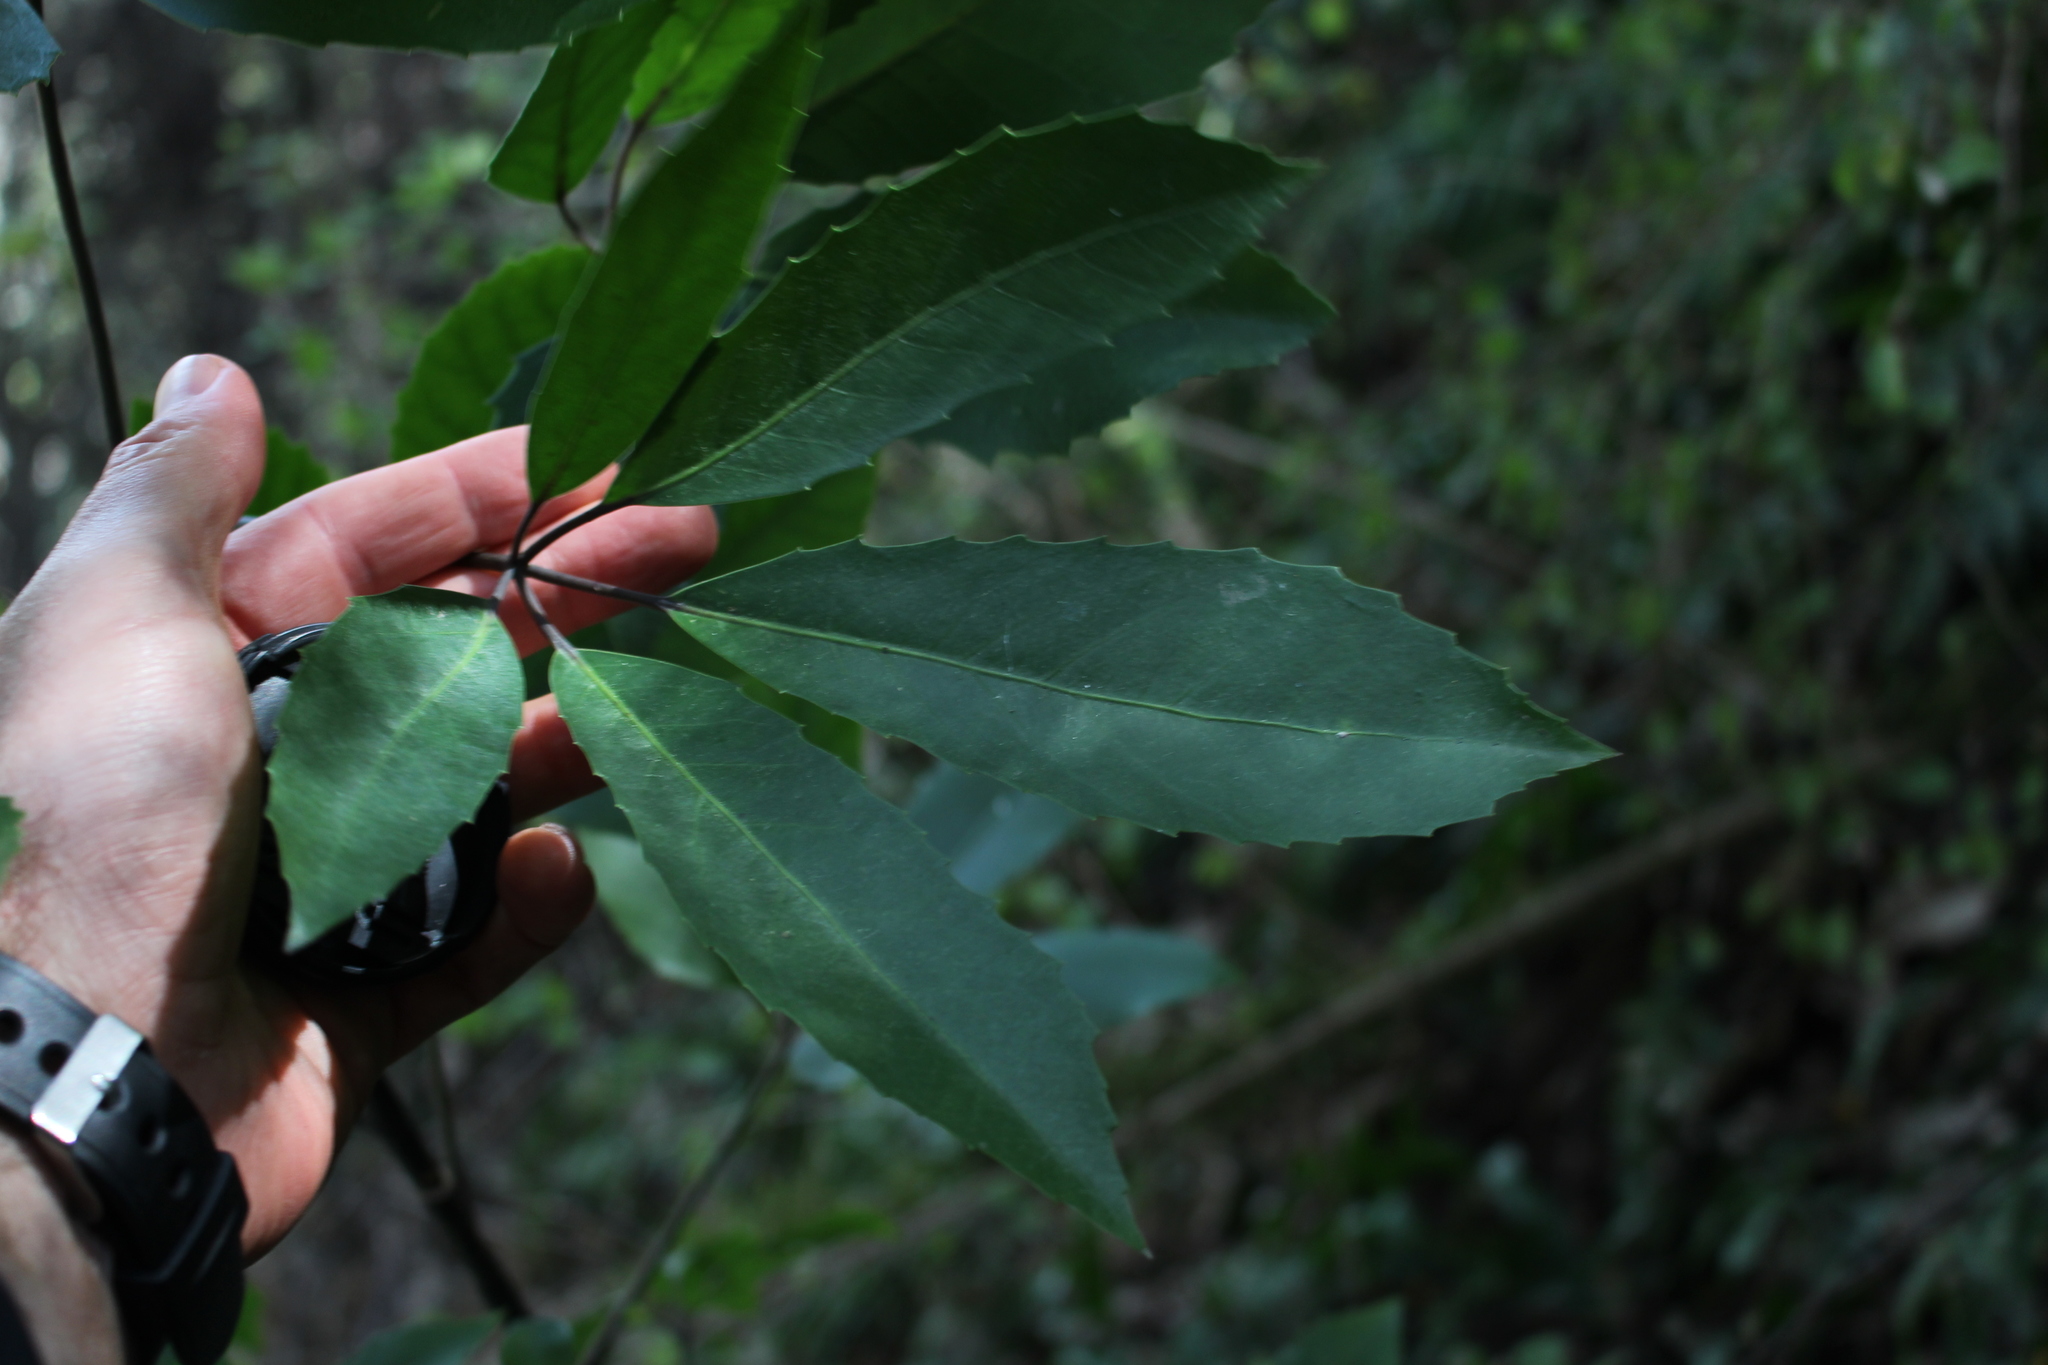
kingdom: Plantae
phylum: Tracheophyta
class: Magnoliopsida
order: Apiales
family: Araliaceae
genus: Neopanax
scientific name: Neopanax arboreus
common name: Five-fingers
